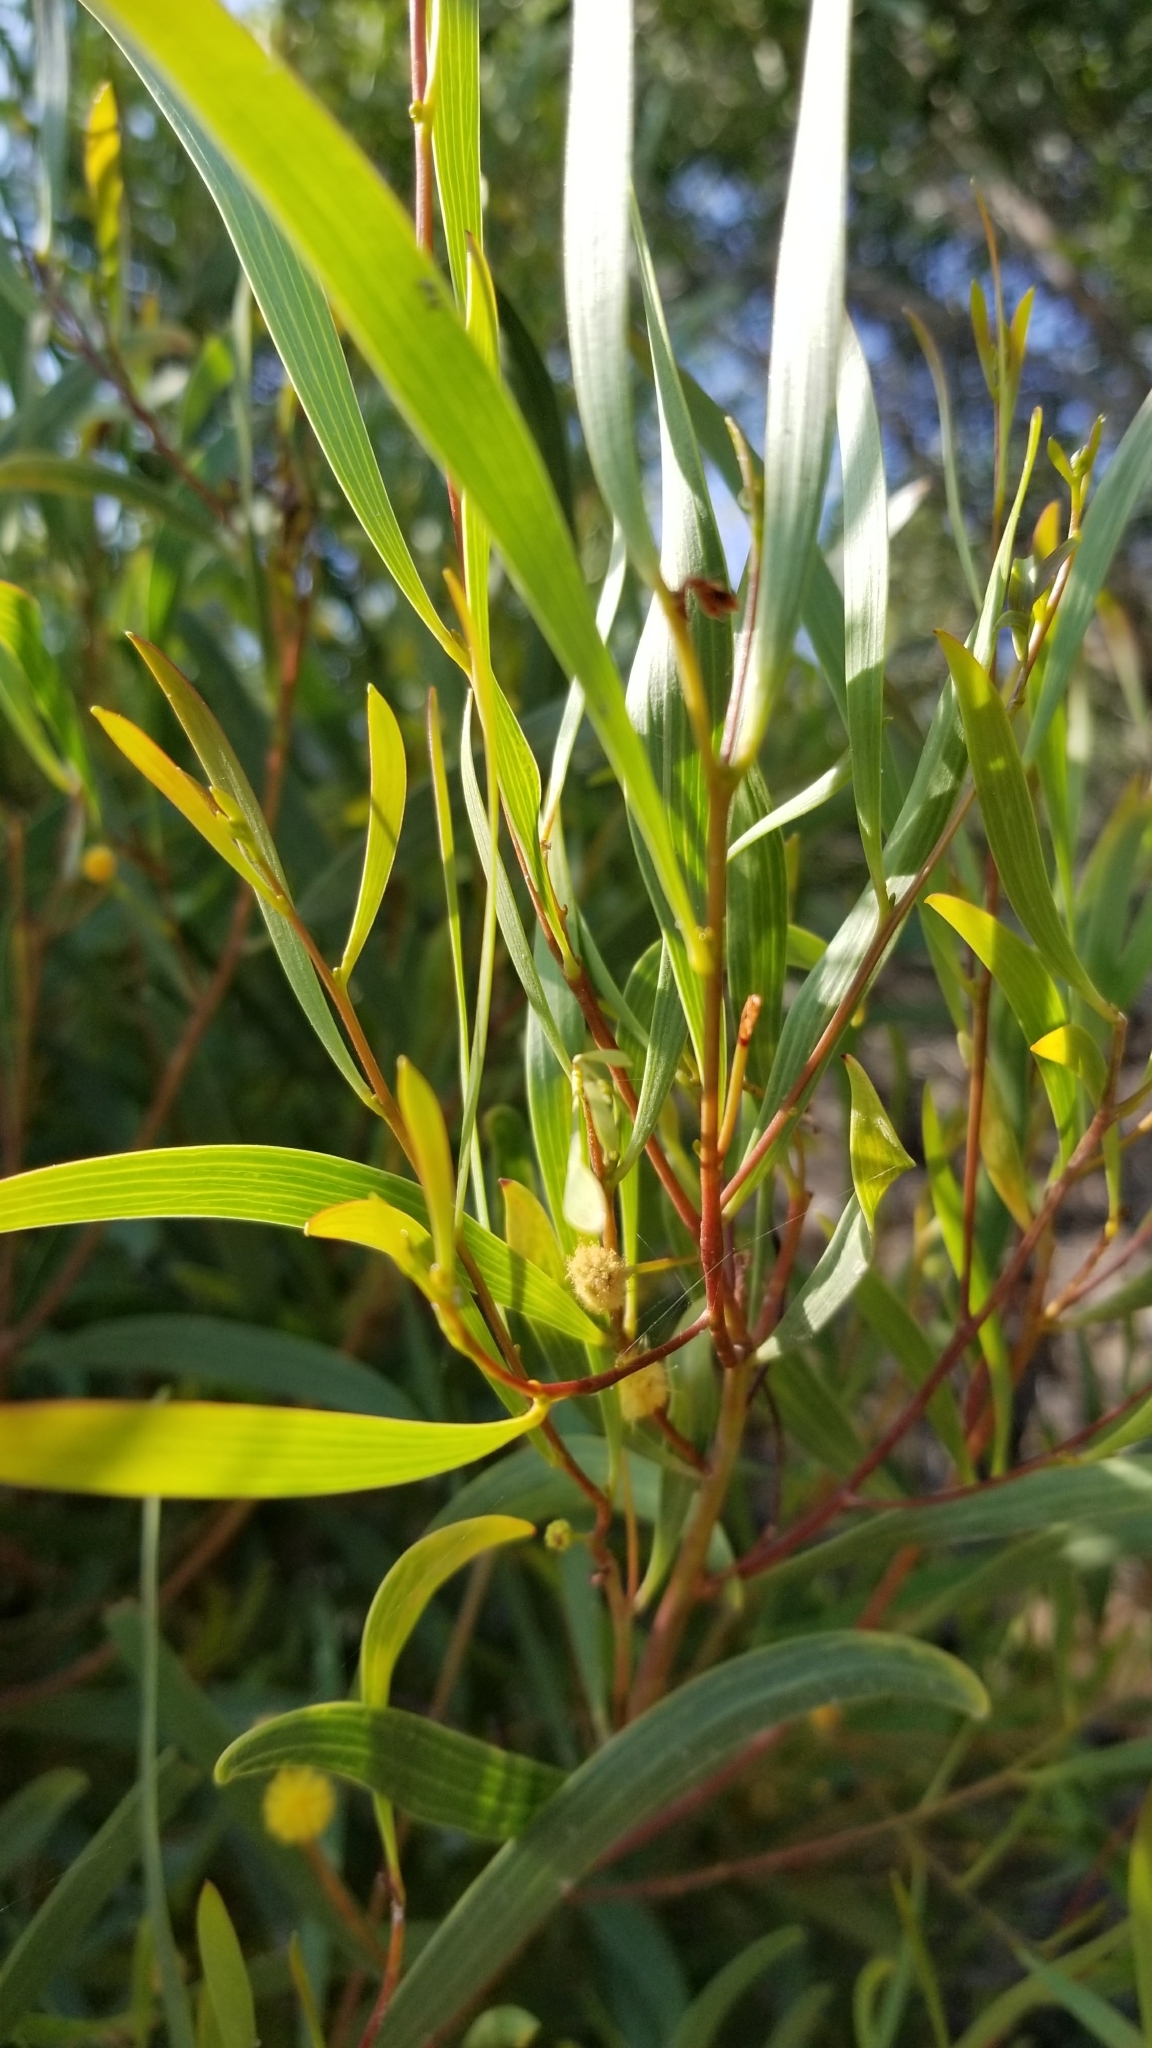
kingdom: Plantae
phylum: Tracheophyta
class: Magnoliopsida
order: Fabales
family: Fabaceae
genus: Acacia
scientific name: Acacia cyclops
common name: Coastal wattle
